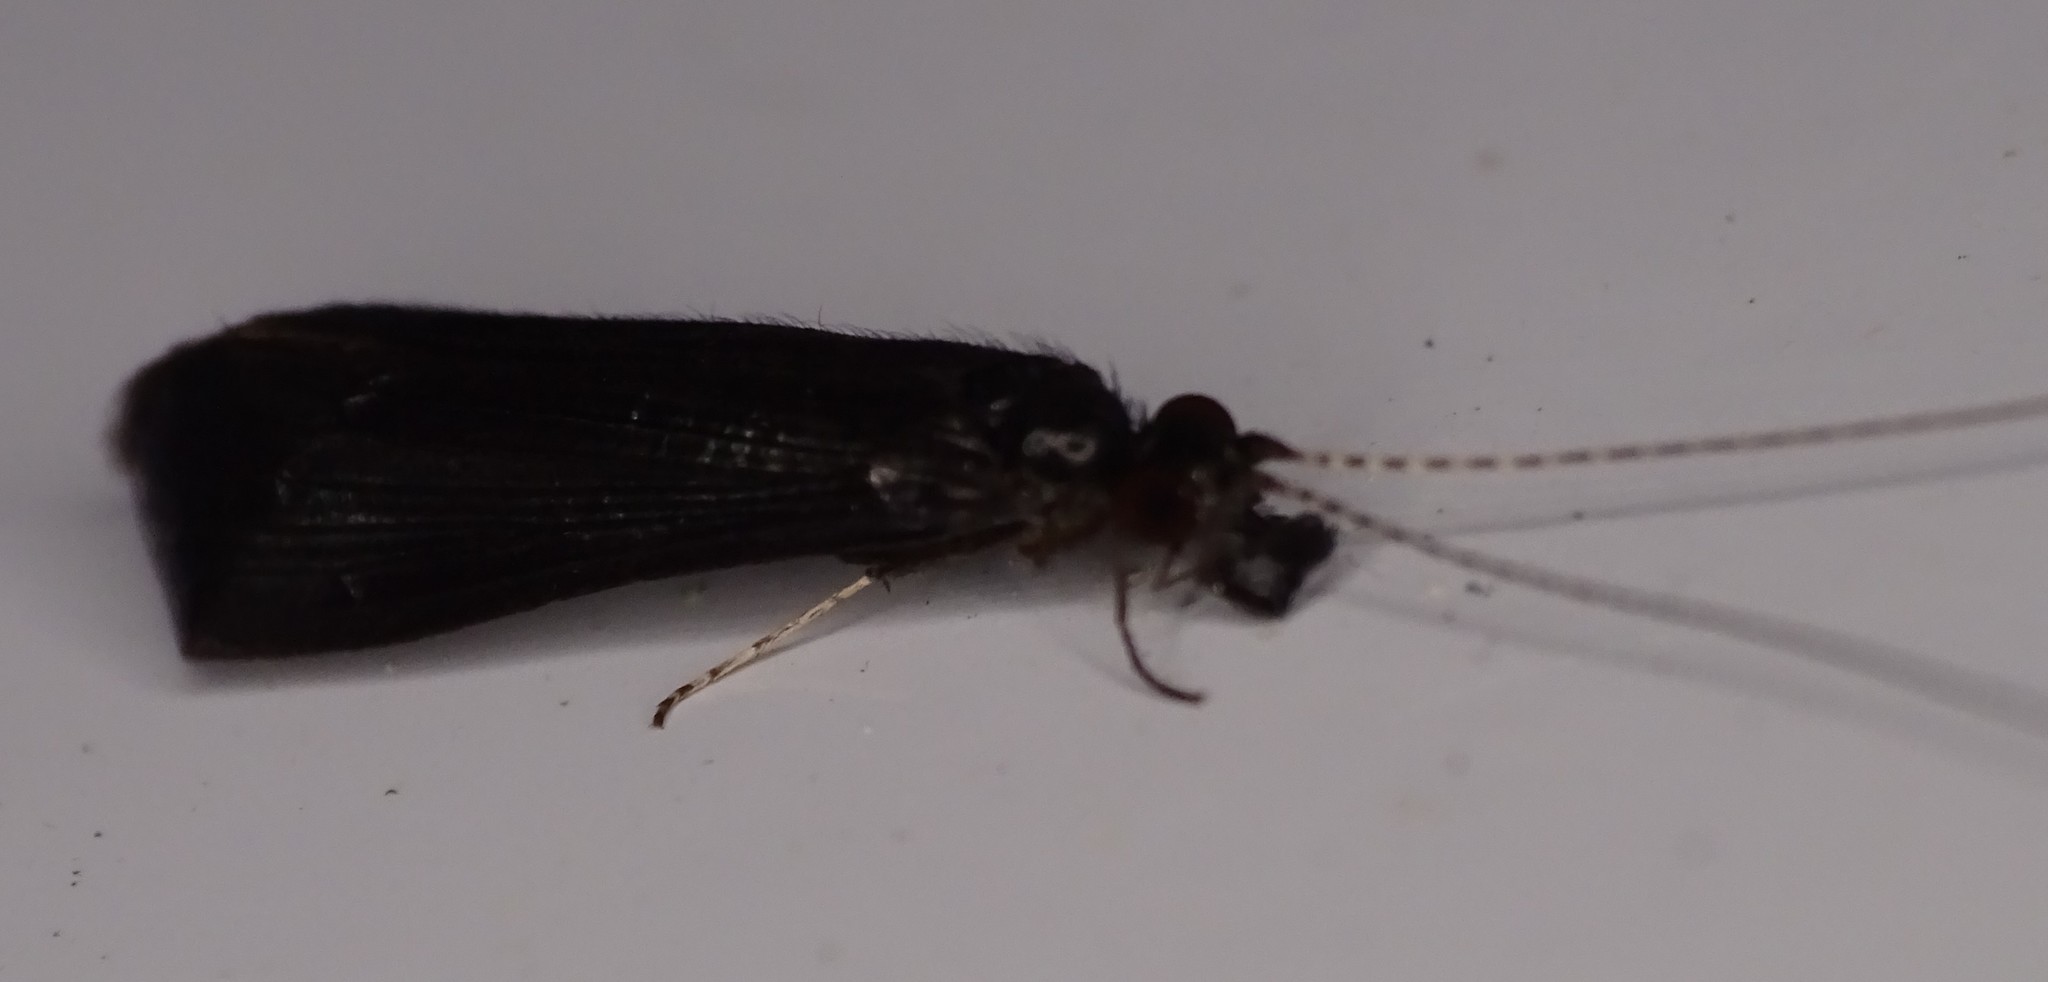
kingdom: Animalia
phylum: Arthropoda
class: Insecta
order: Trichoptera
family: Leptoceridae
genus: Mystacides
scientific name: Mystacides sepulchralis
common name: Black dancer caddisfly
